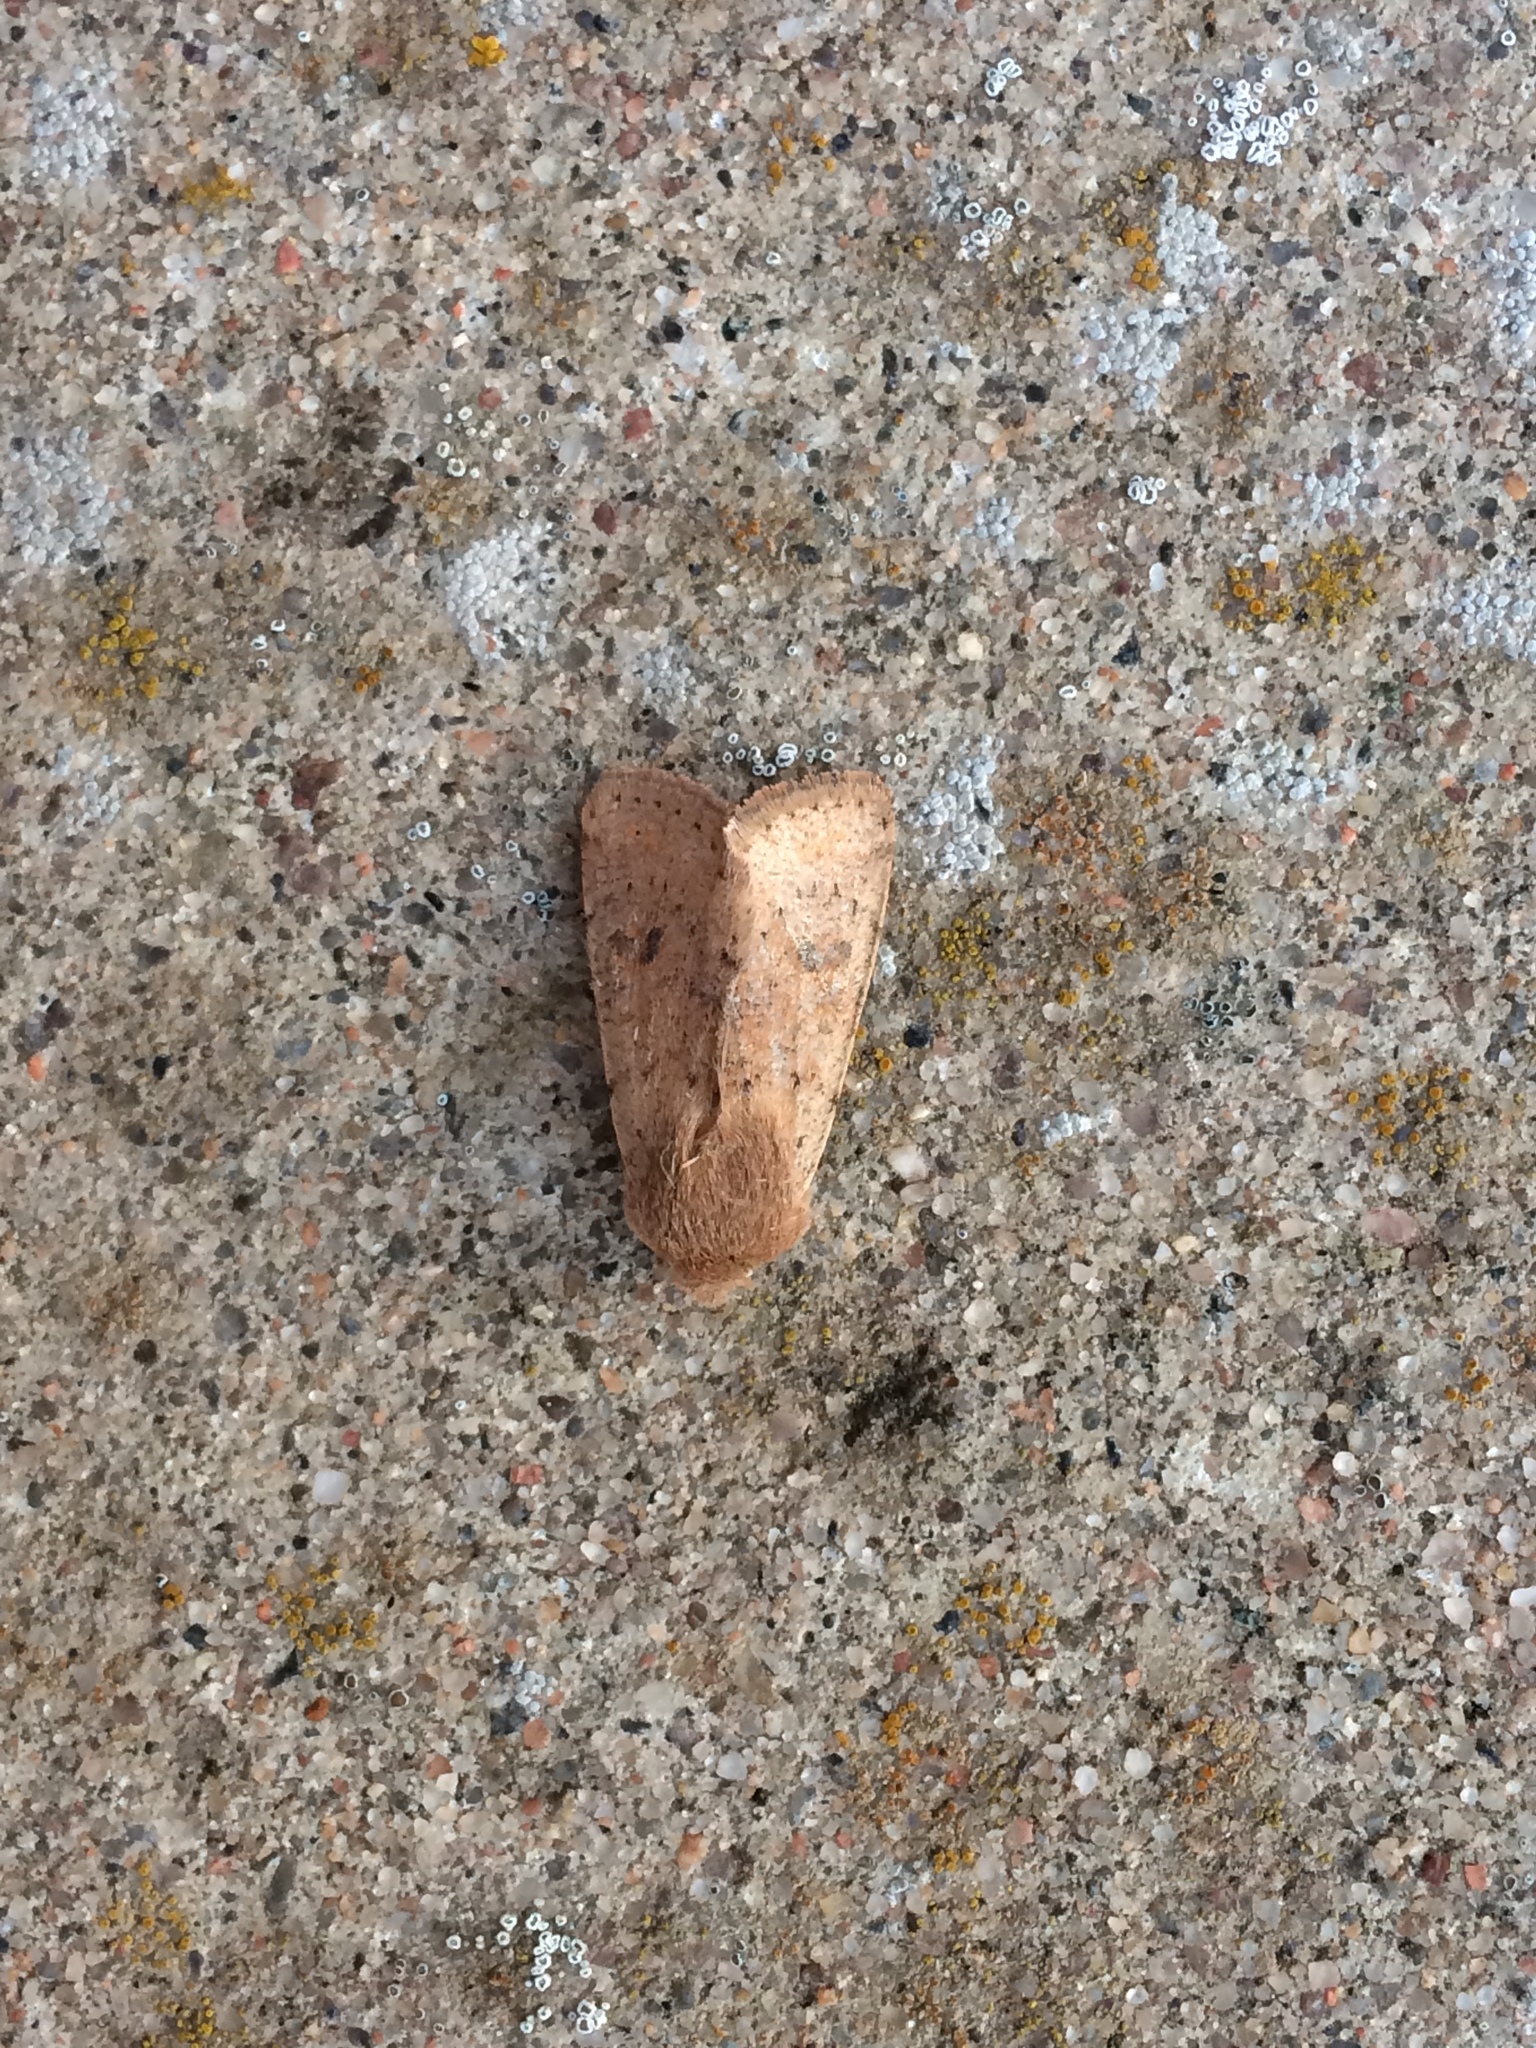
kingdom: Animalia
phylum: Arthropoda
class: Insecta
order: Lepidoptera
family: Noctuidae
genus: Orthosia
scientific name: Orthosia cruda
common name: Small quaker
